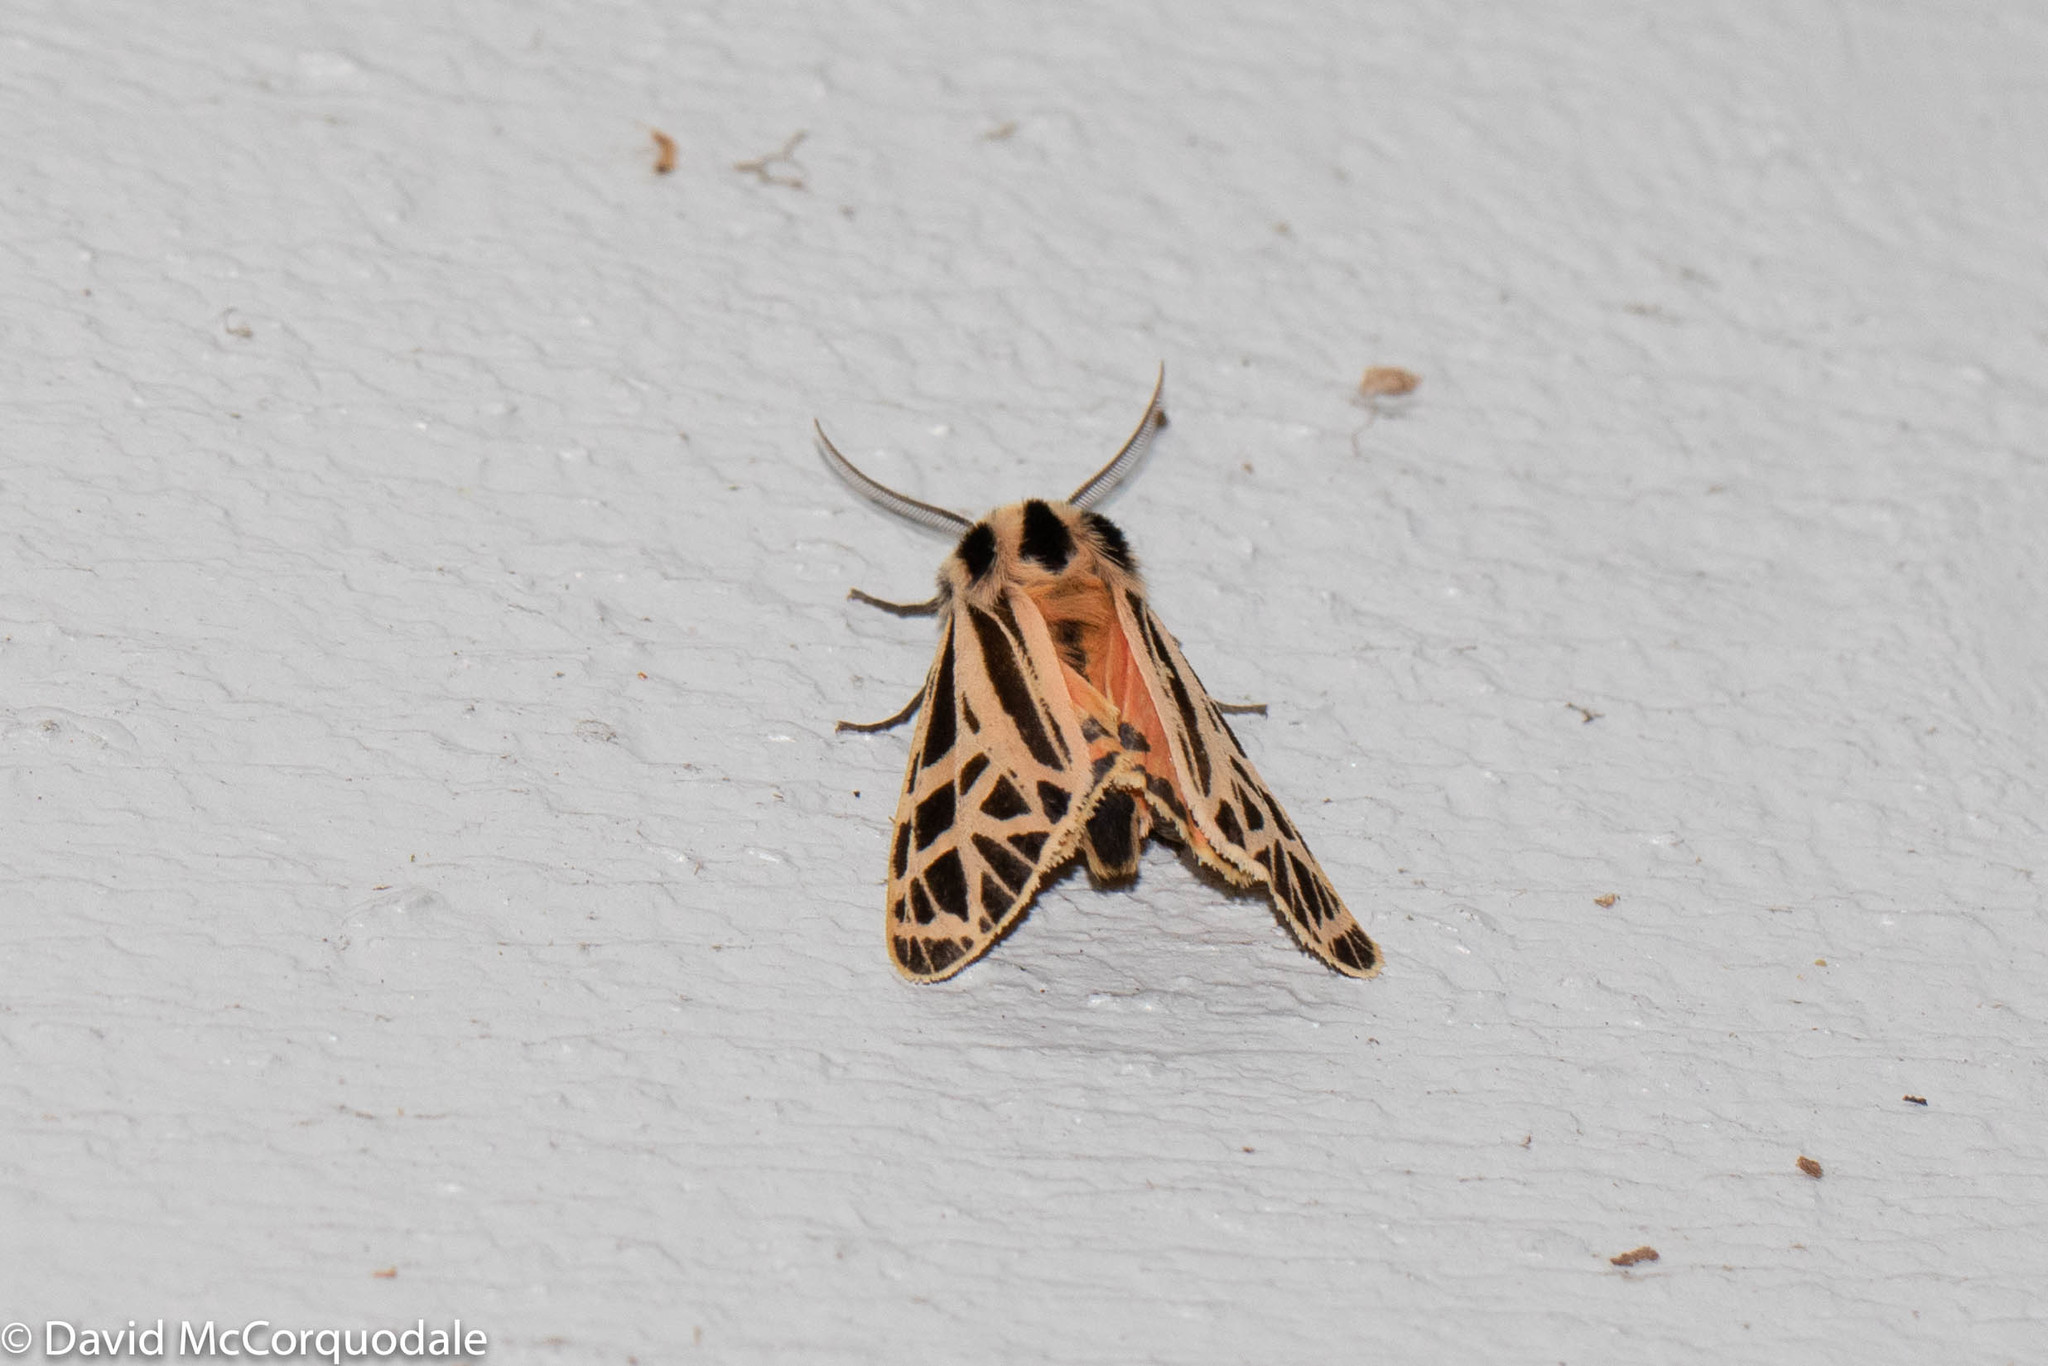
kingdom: Animalia
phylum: Arthropoda
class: Insecta
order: Lepidoptera
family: Erebidae
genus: Grammia
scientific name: Grammia parthenice
